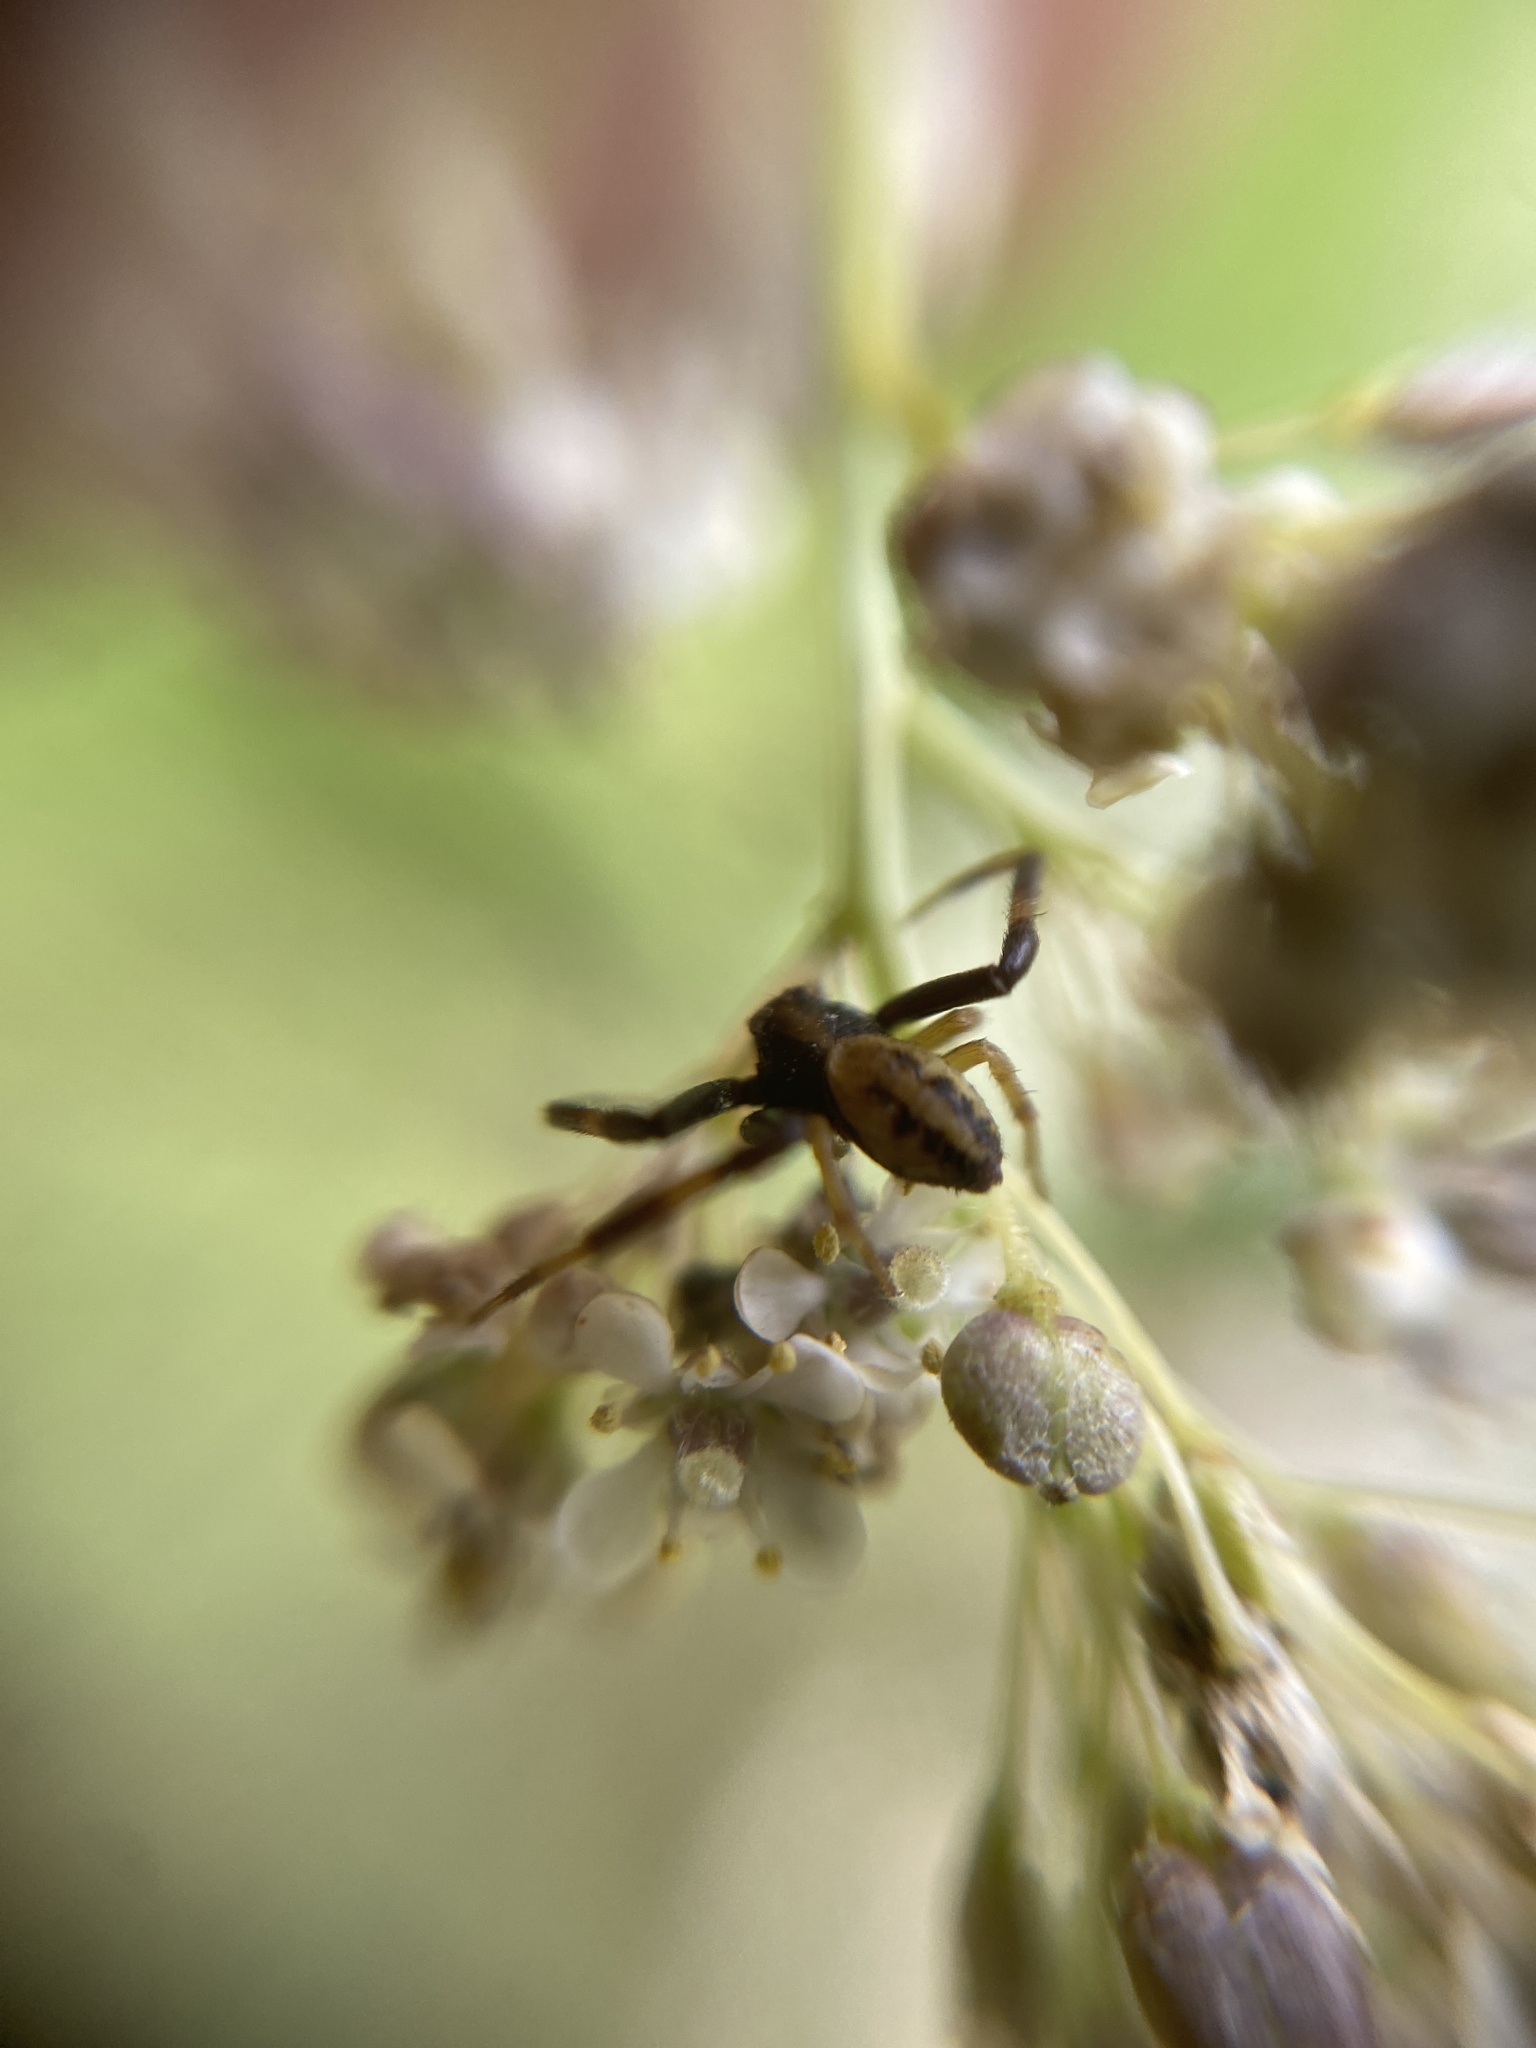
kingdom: Animalia
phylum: Arthropoda
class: Arachnida
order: Araneae
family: Thomisidae
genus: Misumena
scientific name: Misumena vatia
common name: Goldenrod crab spider
